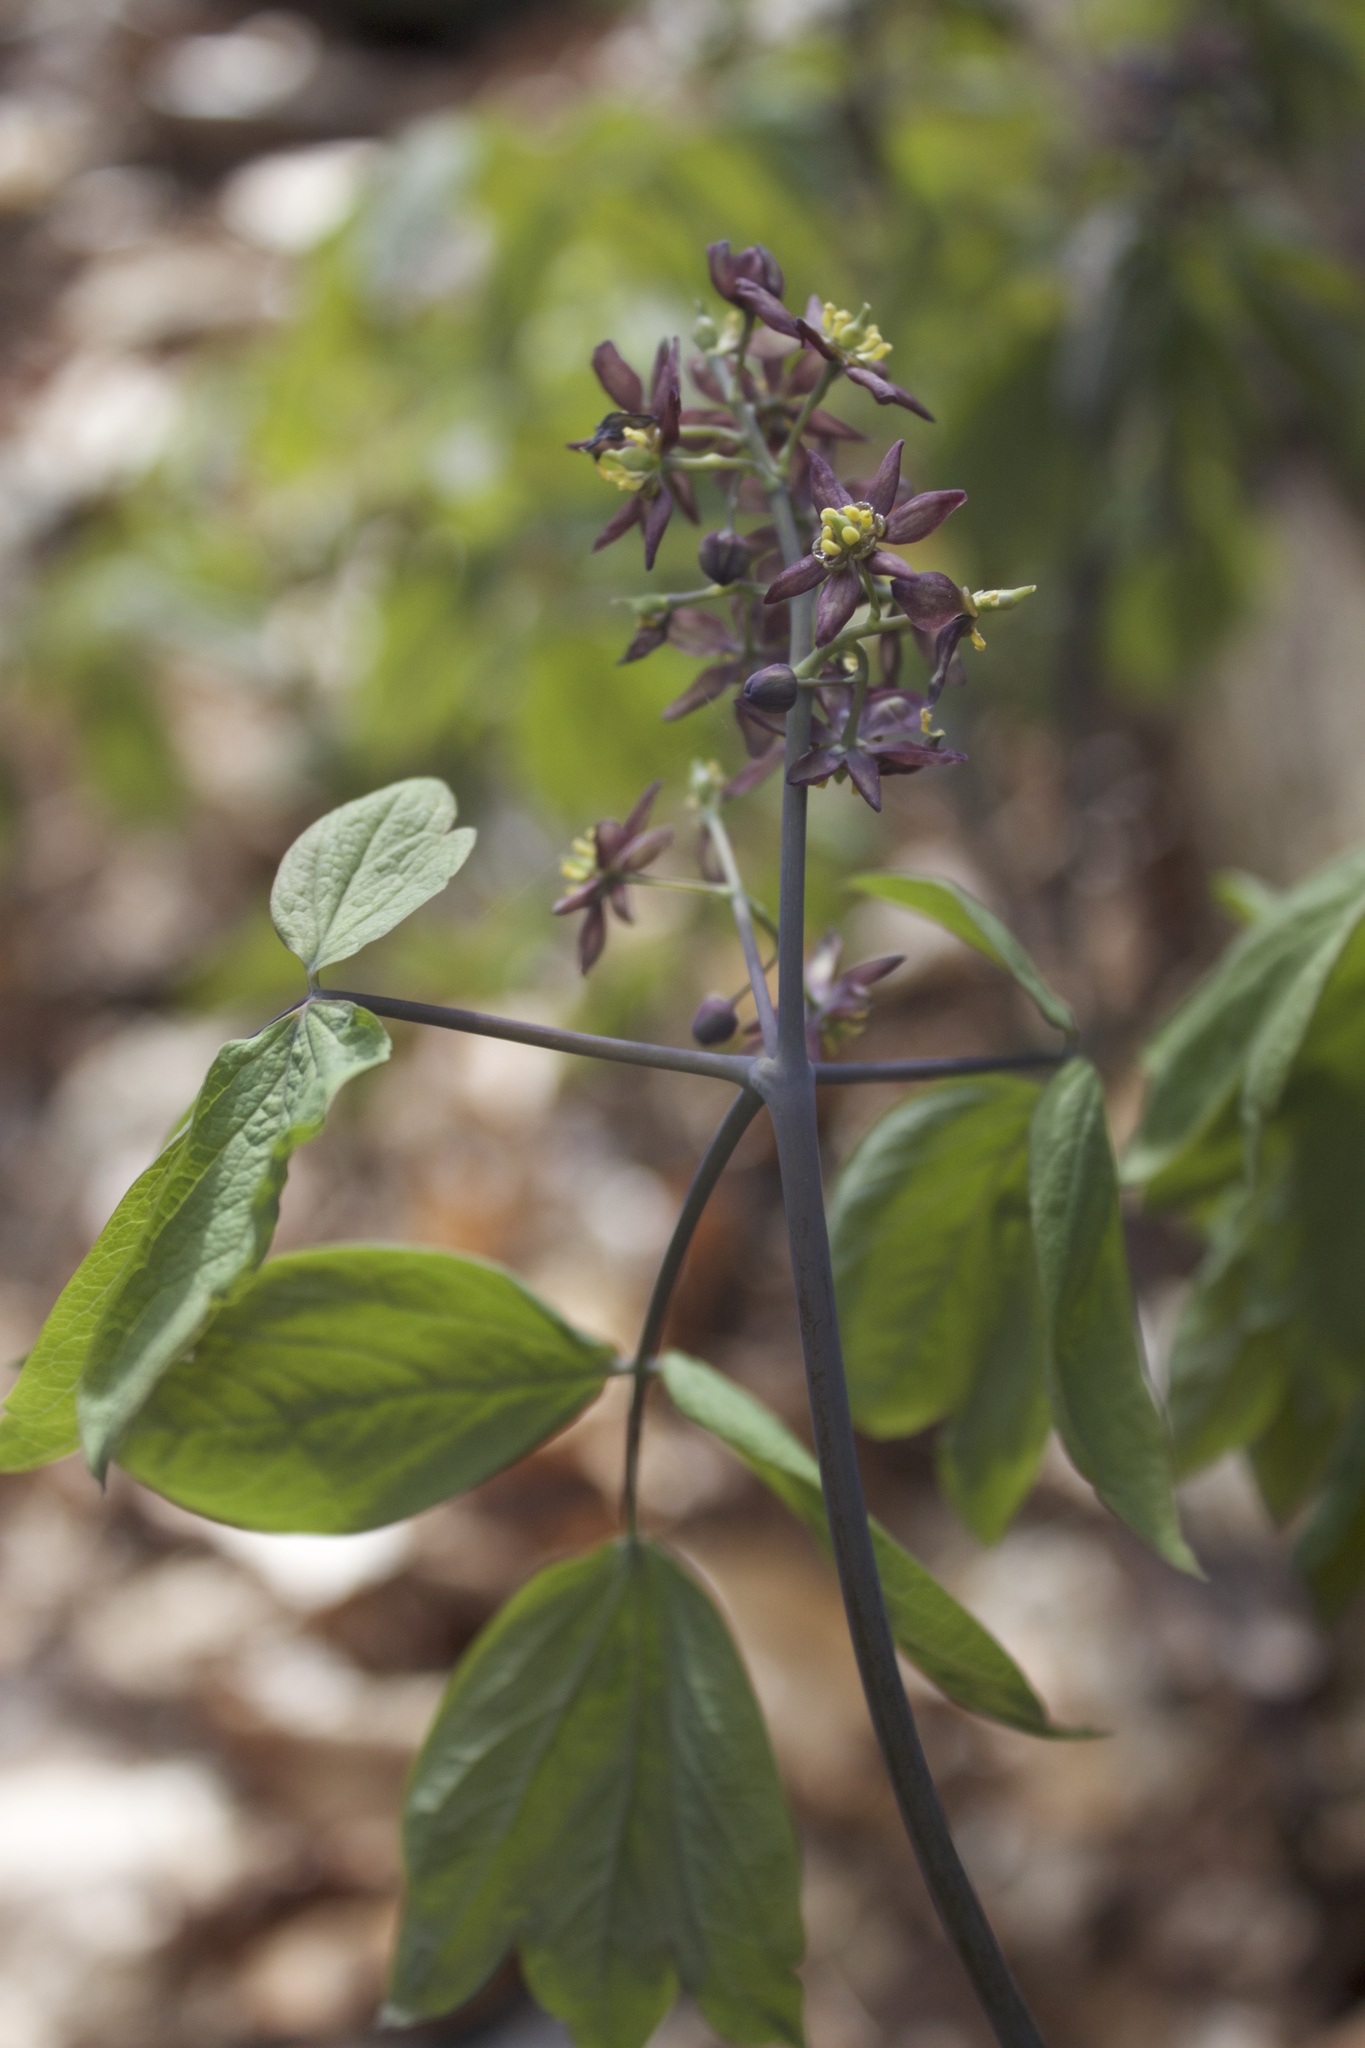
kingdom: Plantae
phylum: Tracheophyta
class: Magnoliopsida
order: Ranunculales
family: Berberidaceae
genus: Caulophyllum
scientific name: Caulophyllum giganteum
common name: Blue cohosh
